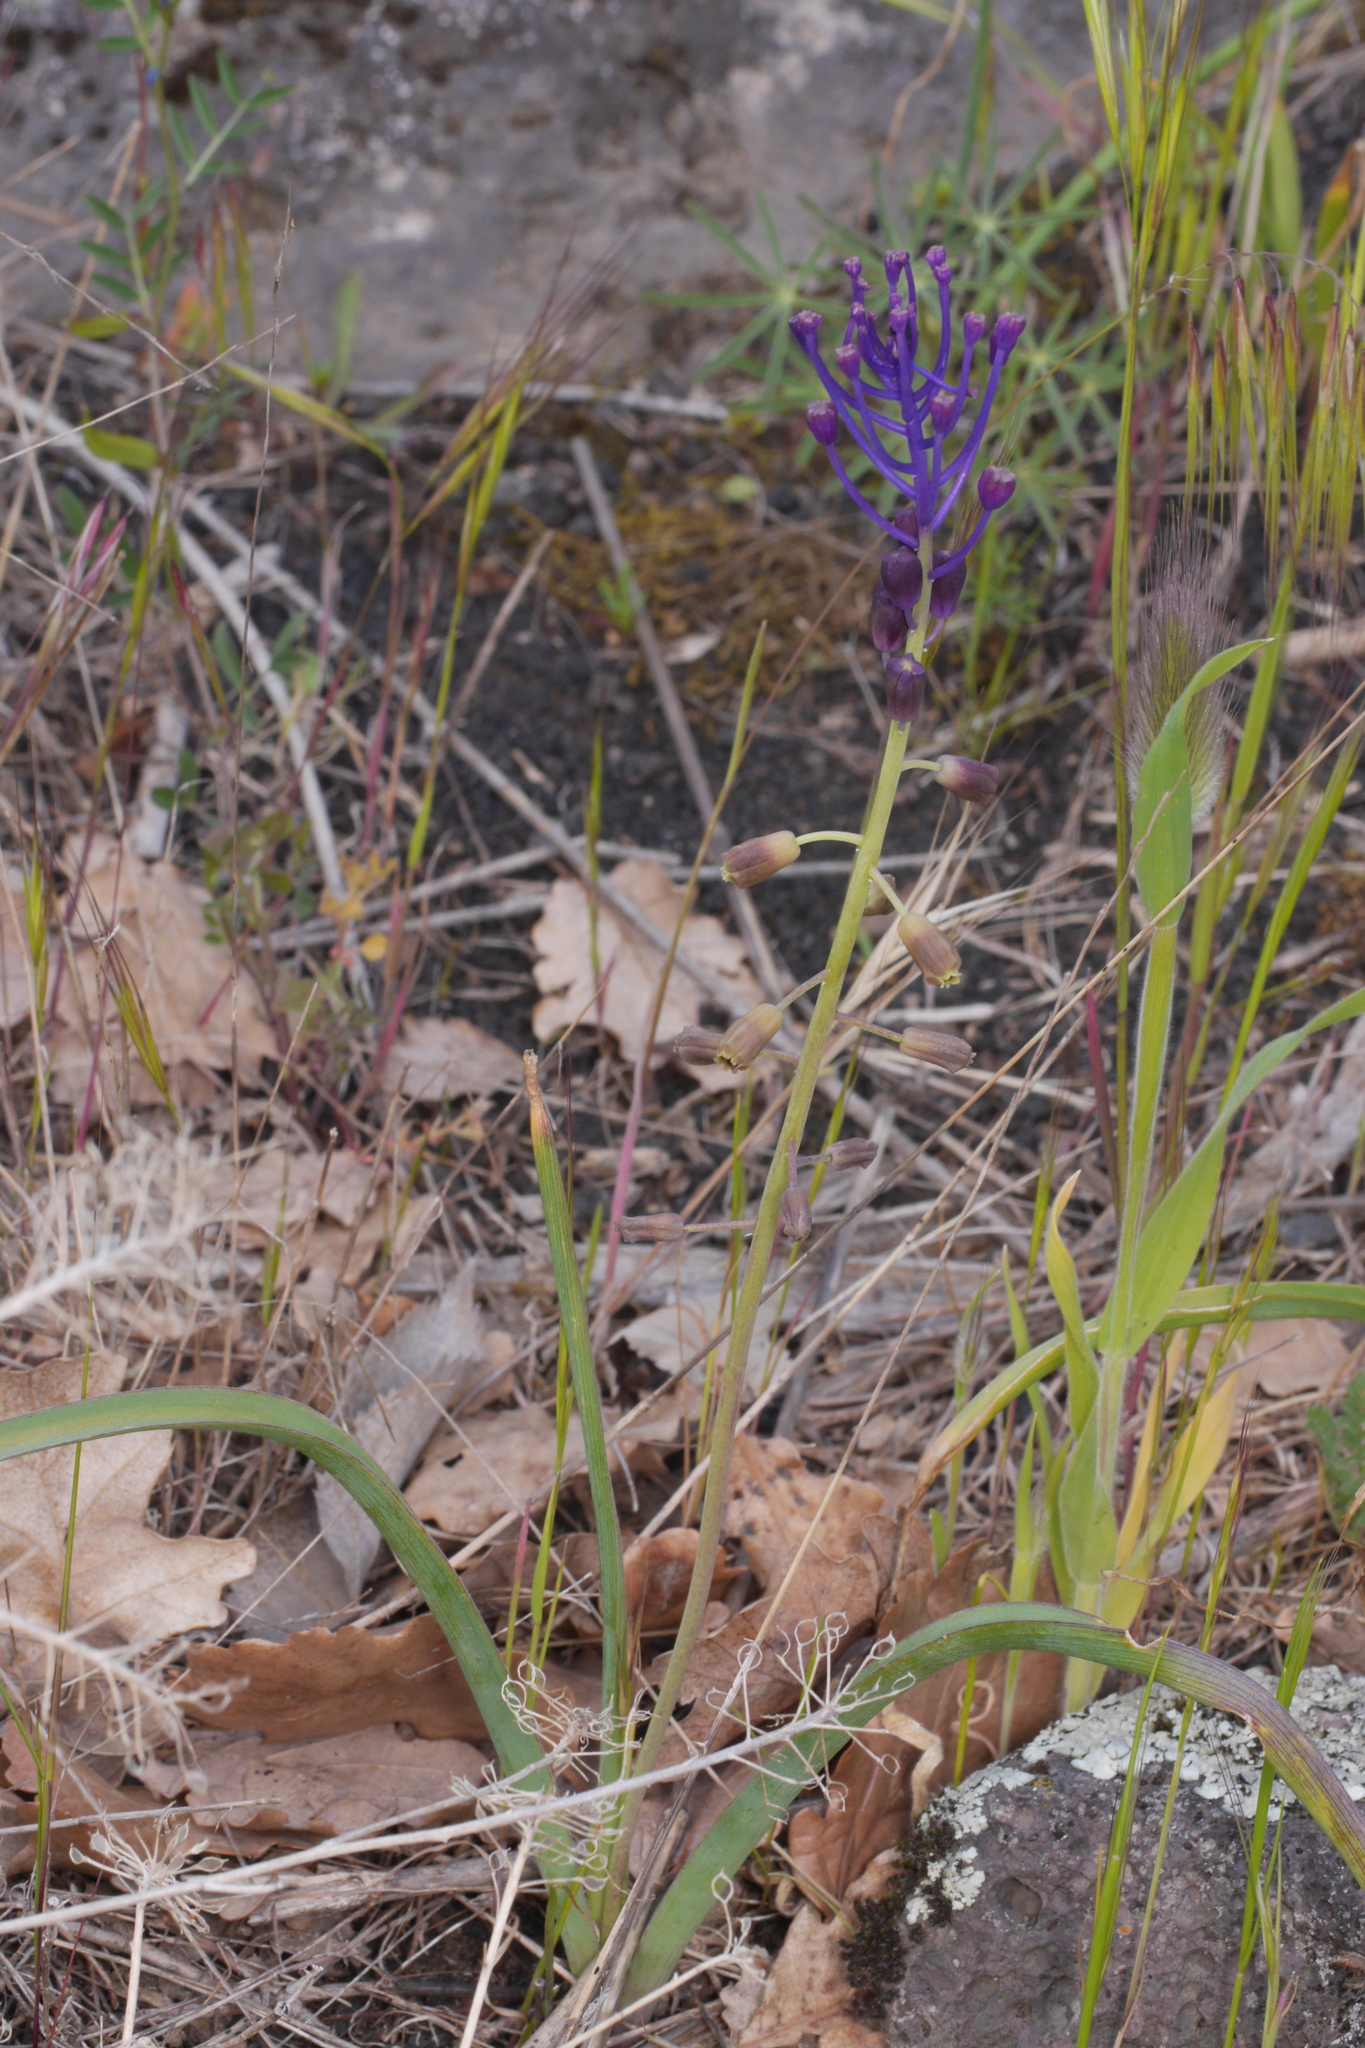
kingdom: Plantae
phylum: Tracheophyta
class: Liliopsida
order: Asparagales
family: Asparagaceae
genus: Muscari
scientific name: Muscari comosum
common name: Tassel hyacinth
